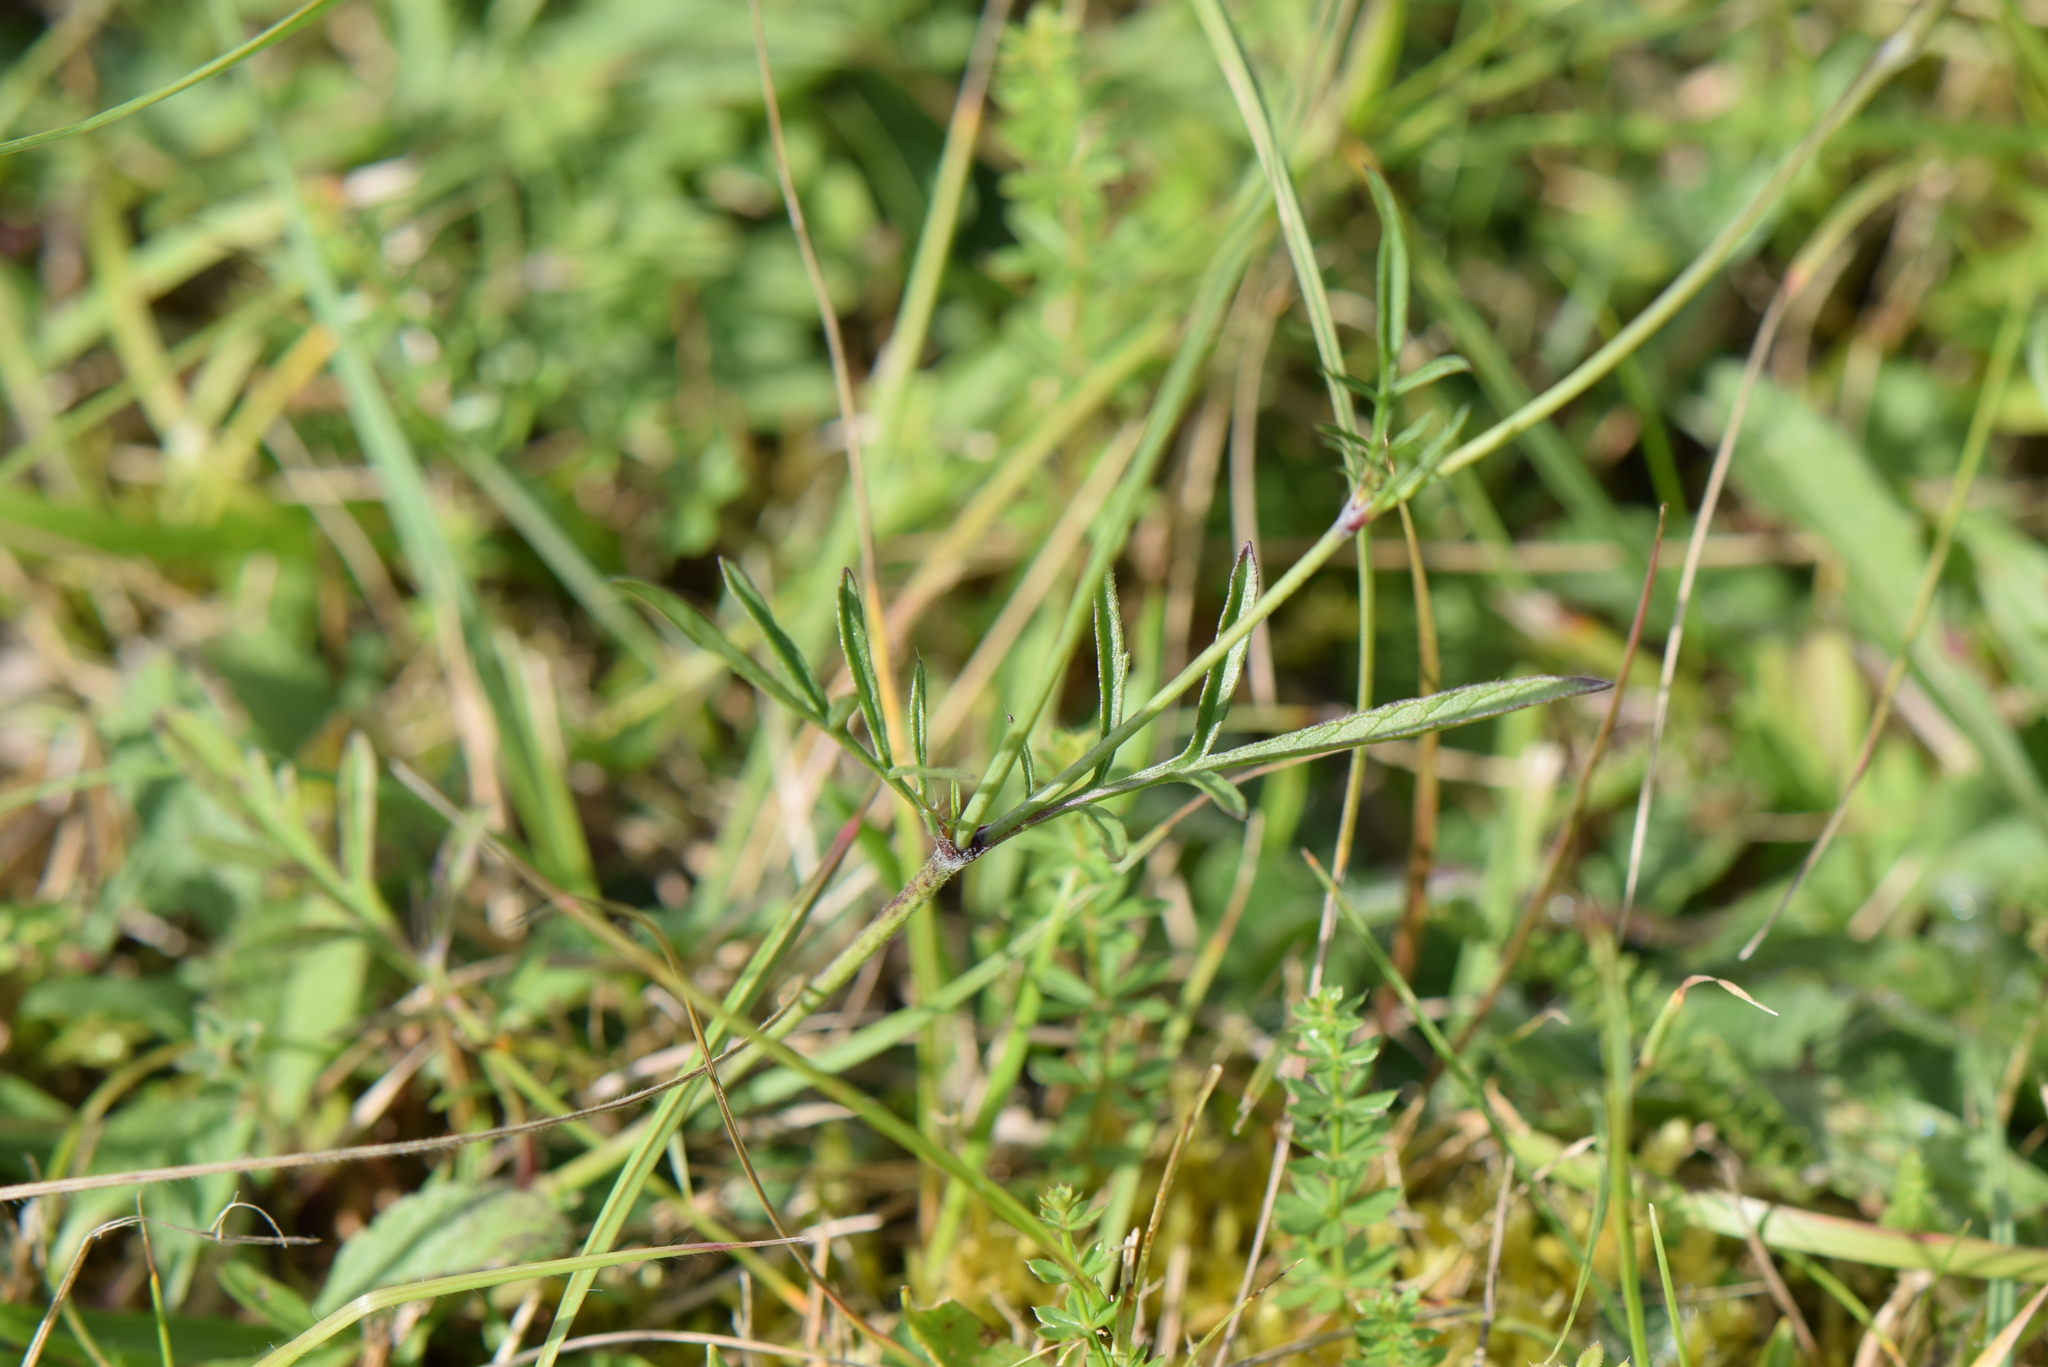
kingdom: Plantae
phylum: Tracheophyta
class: Magnoliopsida
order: Dipsacales
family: Caprifoliaceae
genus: Scabiosa
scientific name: Scabiosa columbaria
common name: Small scabious
